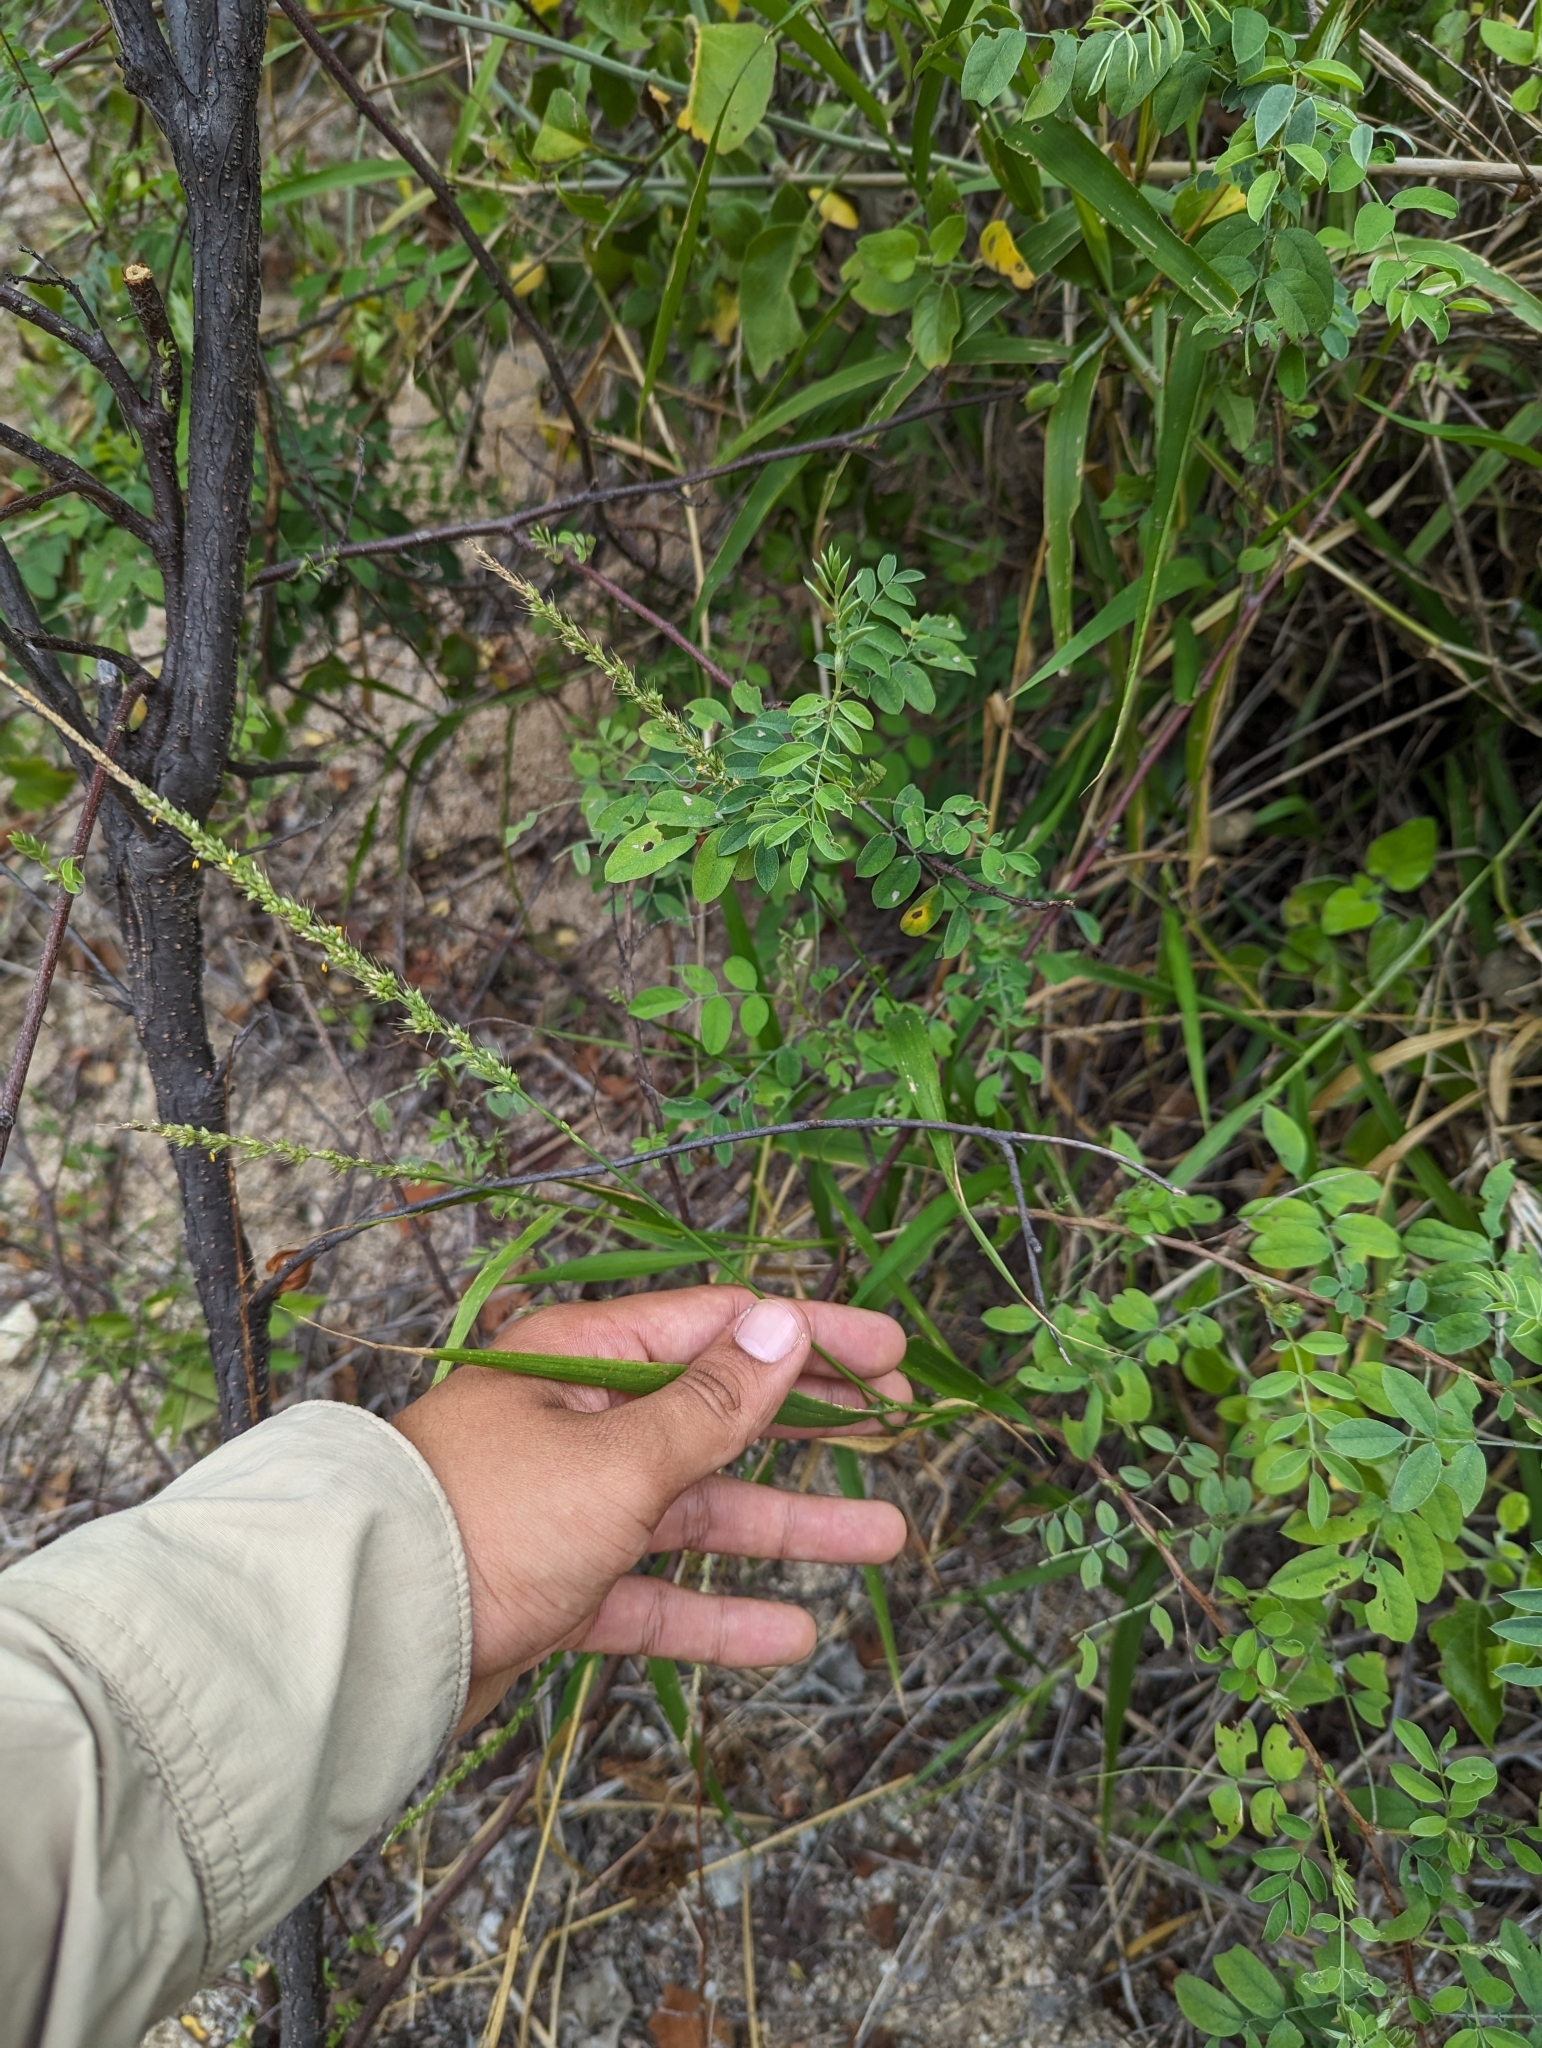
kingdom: Plantae
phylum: Tracheophyta
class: Liliopsida
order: Poales
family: Poaceae
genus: Setaria
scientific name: Setaria palmeri
